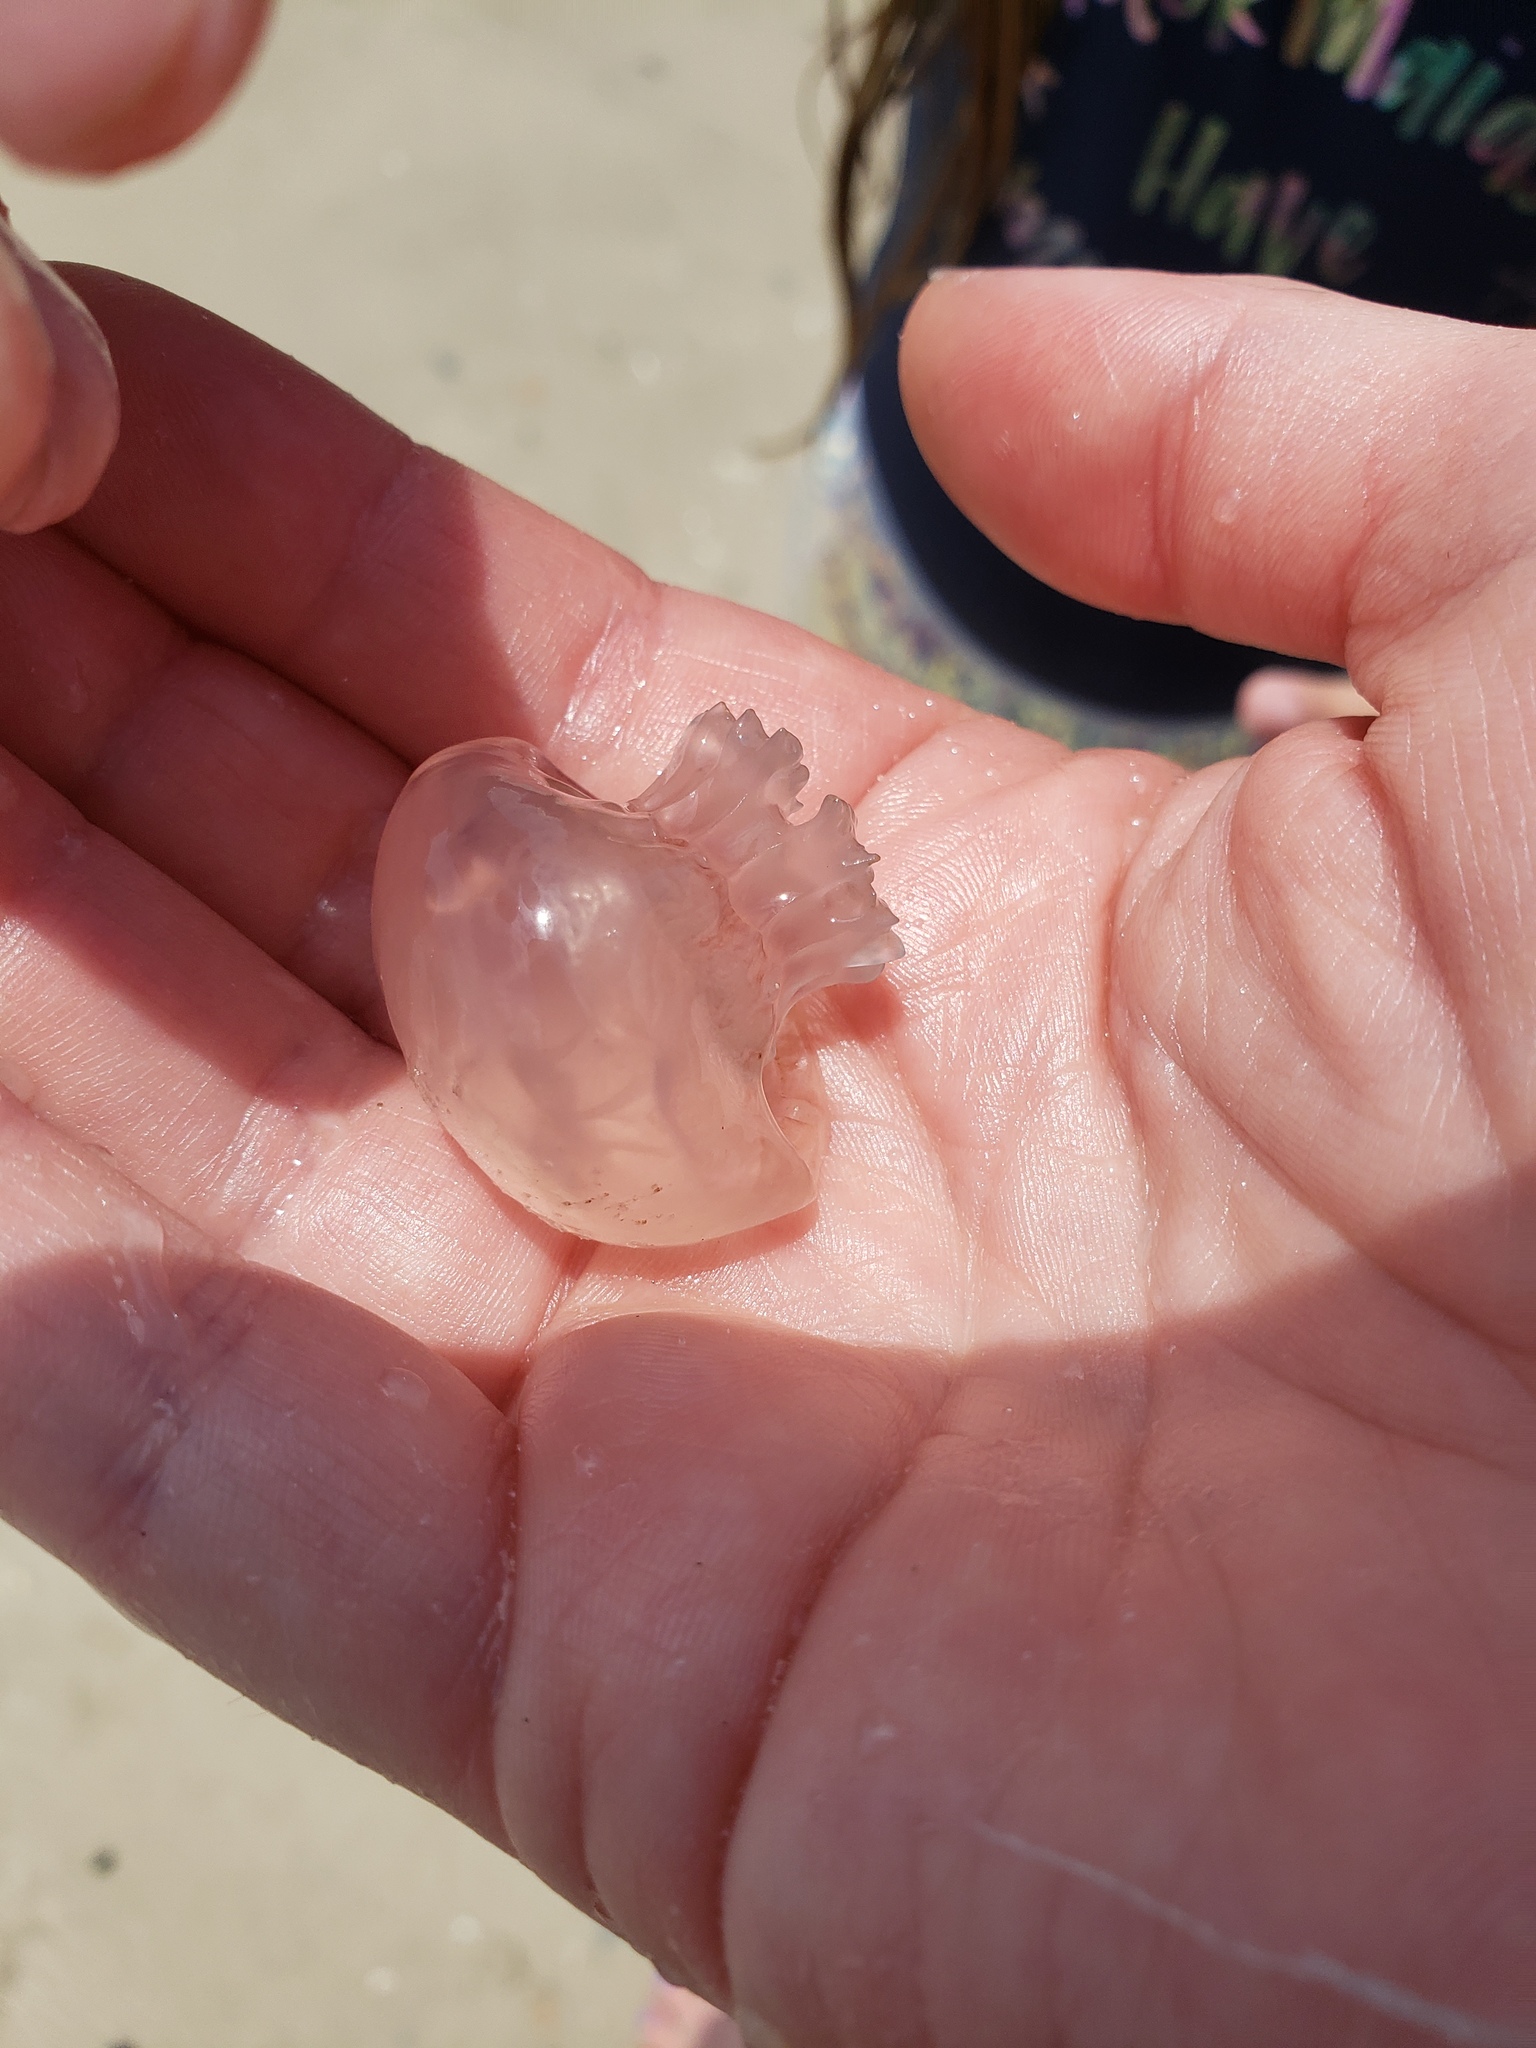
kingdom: Animalia
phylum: Cnidaria
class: Scyphozoa
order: Rhizostomeae
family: Stomolophidae
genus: Stomolophus
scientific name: Stomolophus meleagris
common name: Cabbagehead
